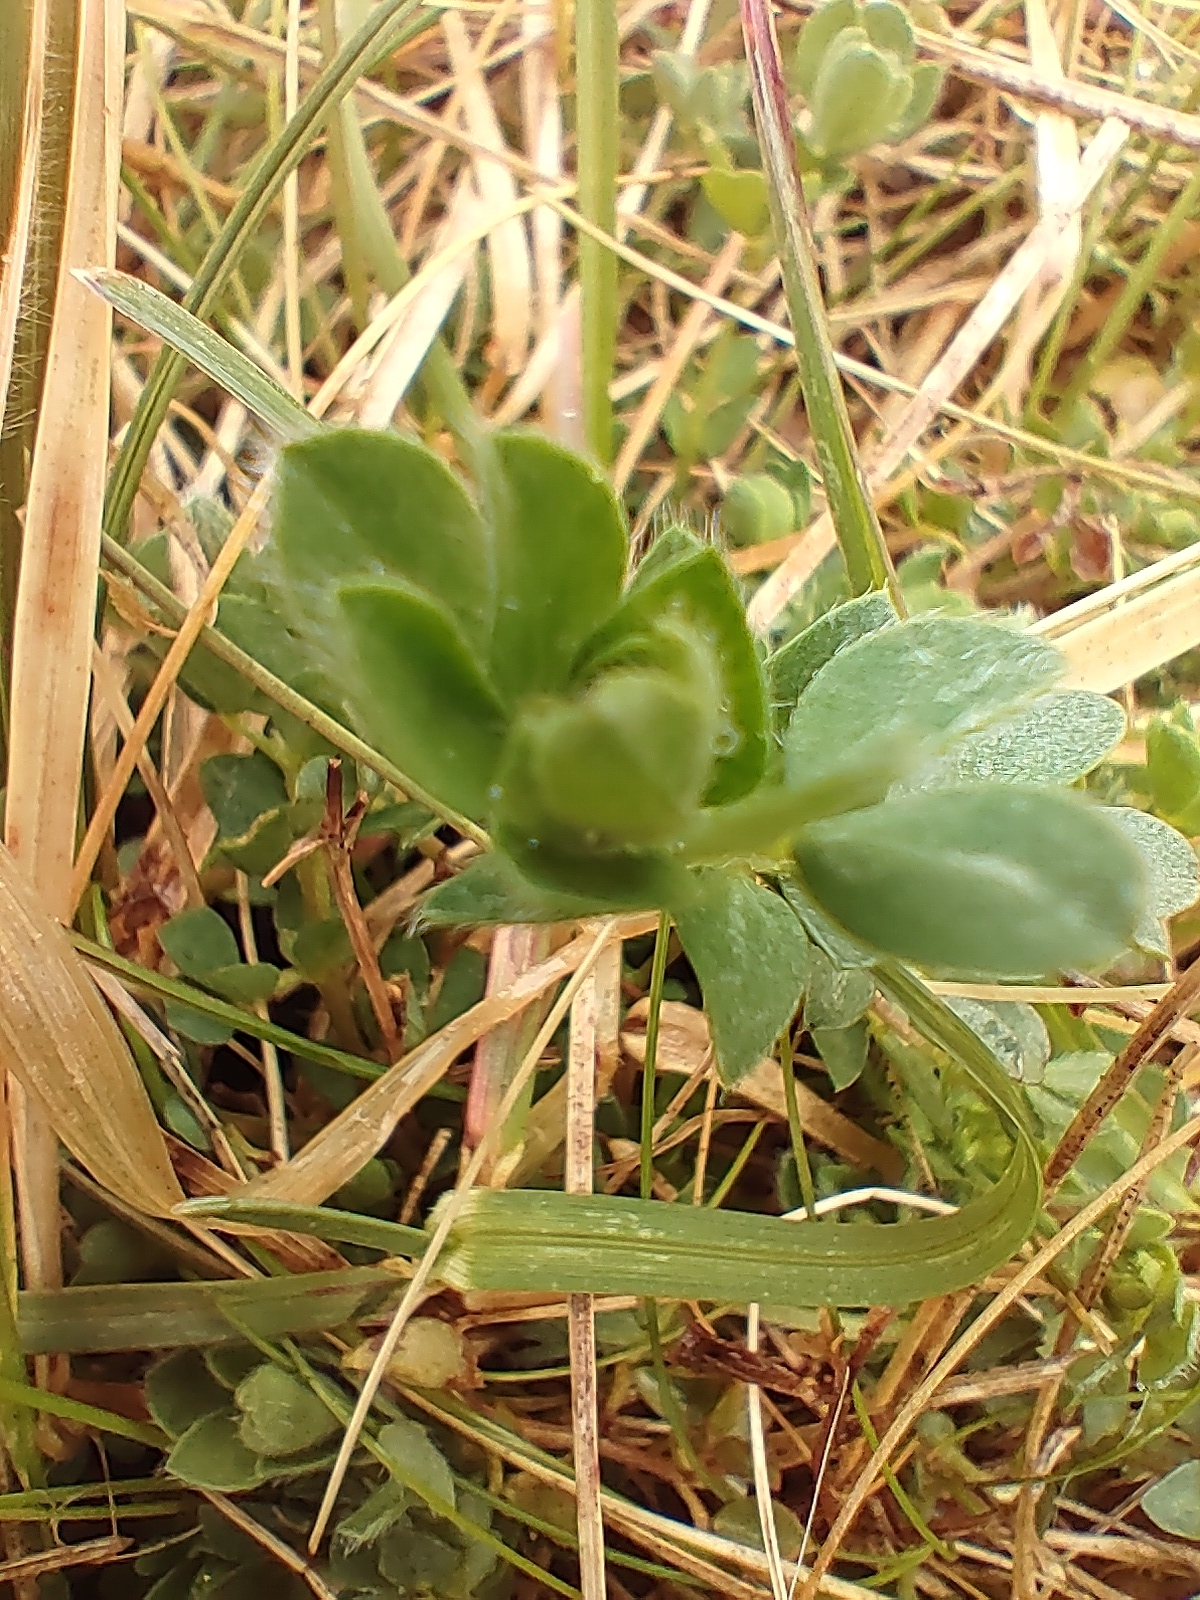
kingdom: Plantae
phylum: Tracheophyta
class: Magnoliopsida
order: Fabales
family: Fabaceae
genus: Lotus
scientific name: Lotus corniculatus
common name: Common bird's-foot-trefoil
